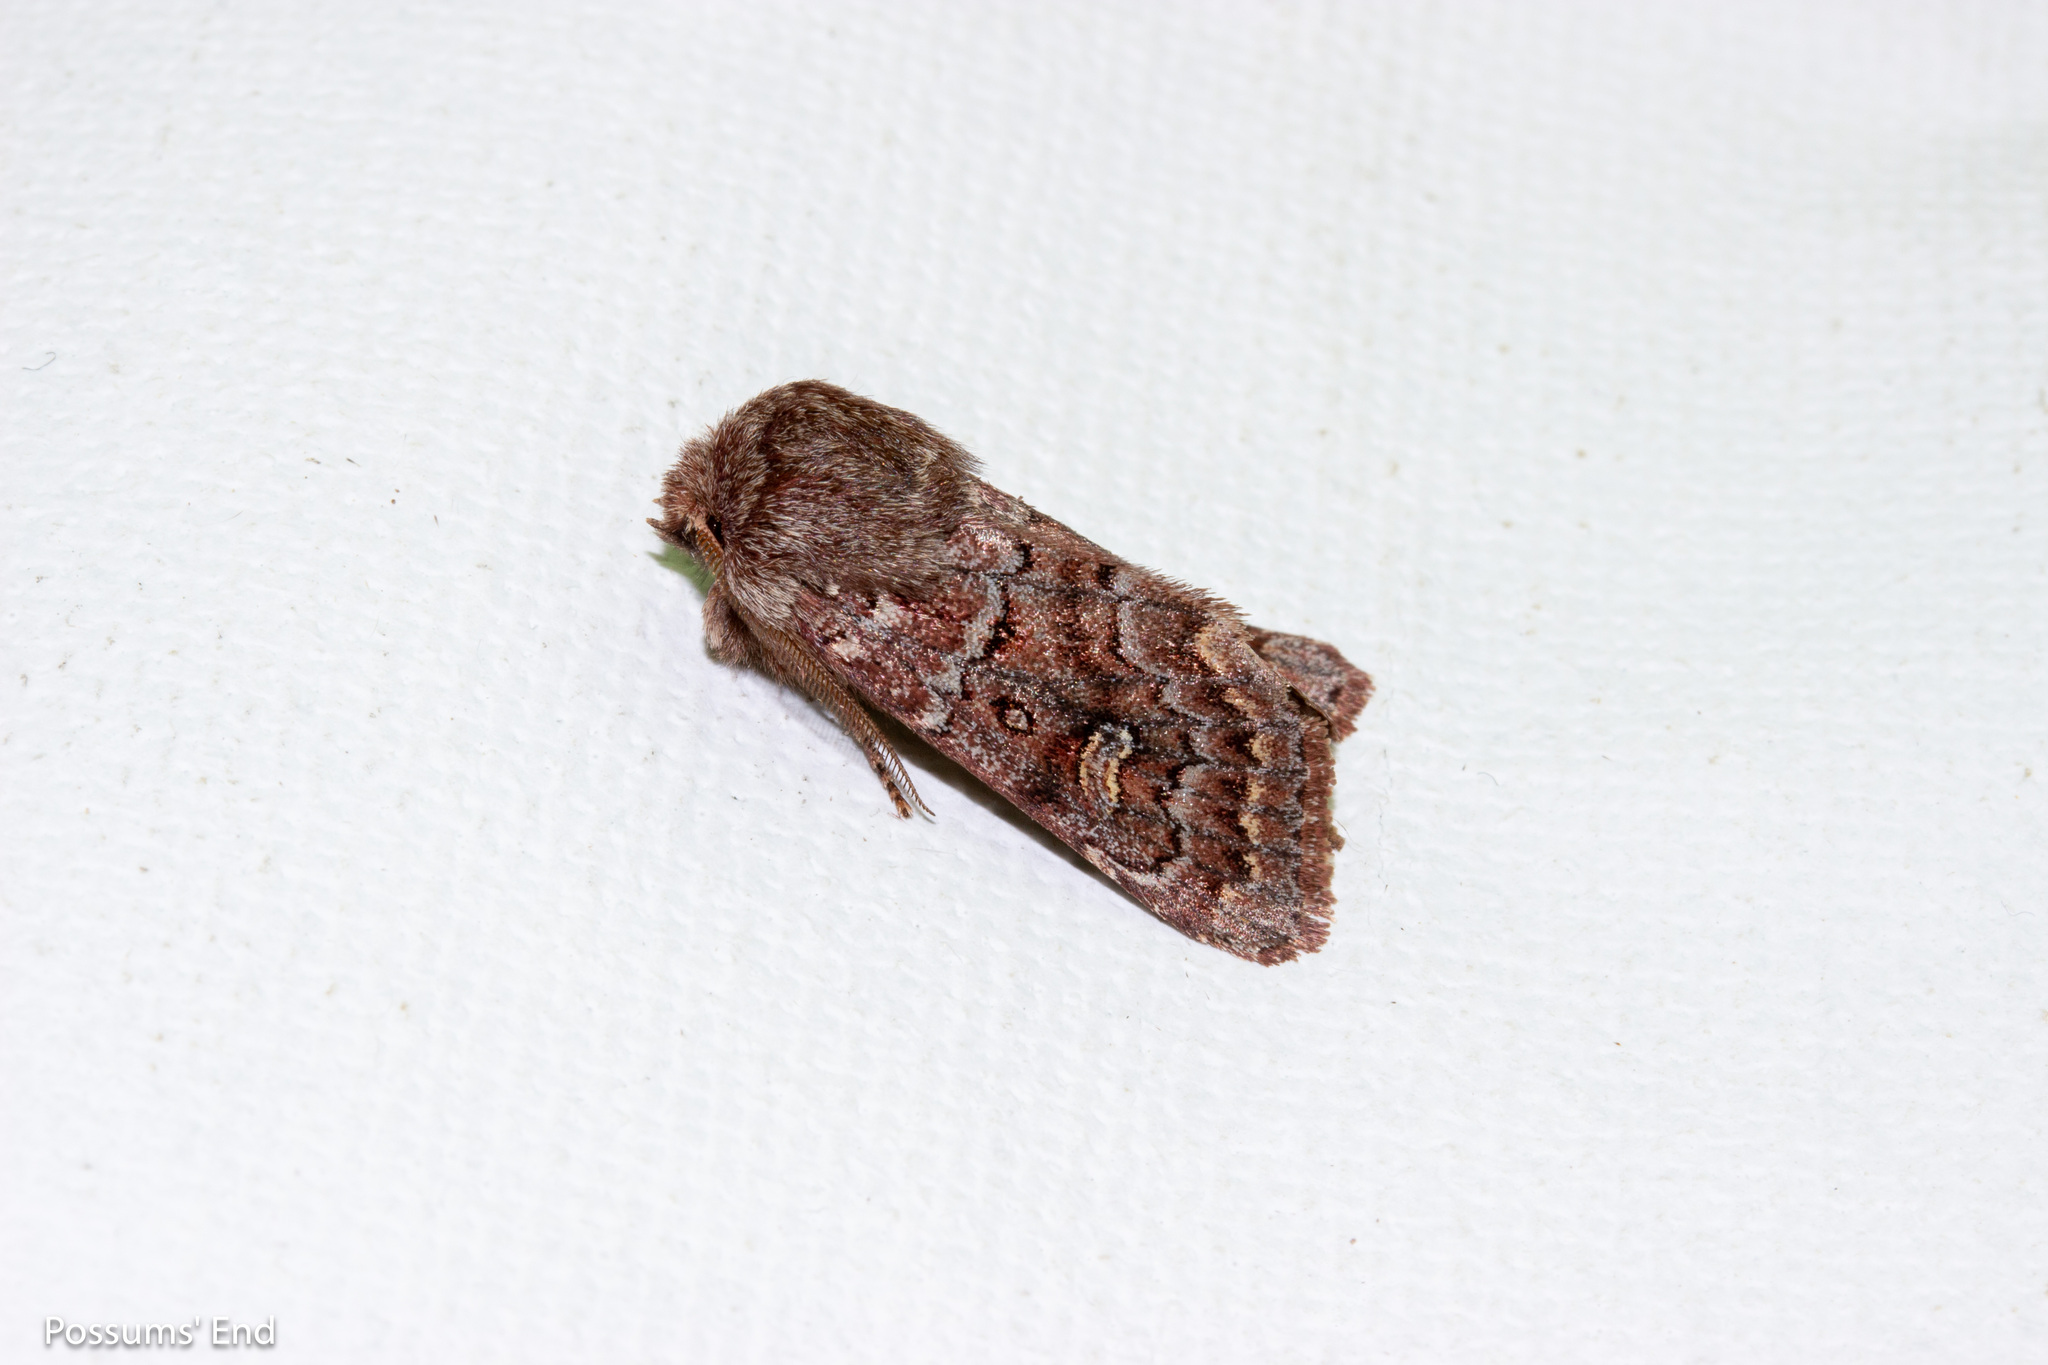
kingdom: Animalia
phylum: Arthropoda
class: Insecta
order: Lepidoptera
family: Noctuidae
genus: Ichneutica
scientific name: Ichneutica marmorata
